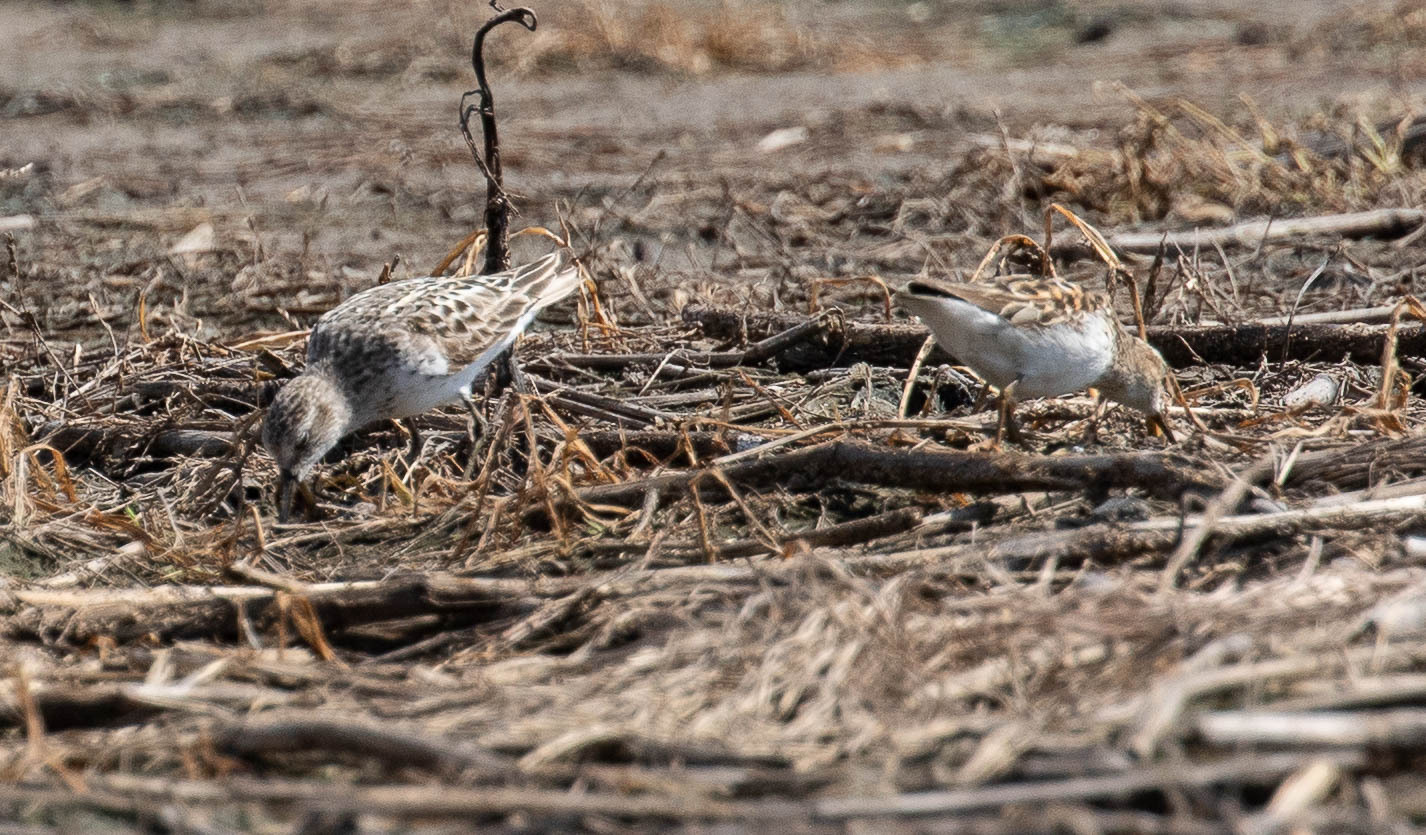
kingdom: Animalia
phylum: Chordata
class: Aves
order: Charadriiformes
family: Scolopacidae
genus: Calidris
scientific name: Calidris minutilla
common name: Least sandpiper
